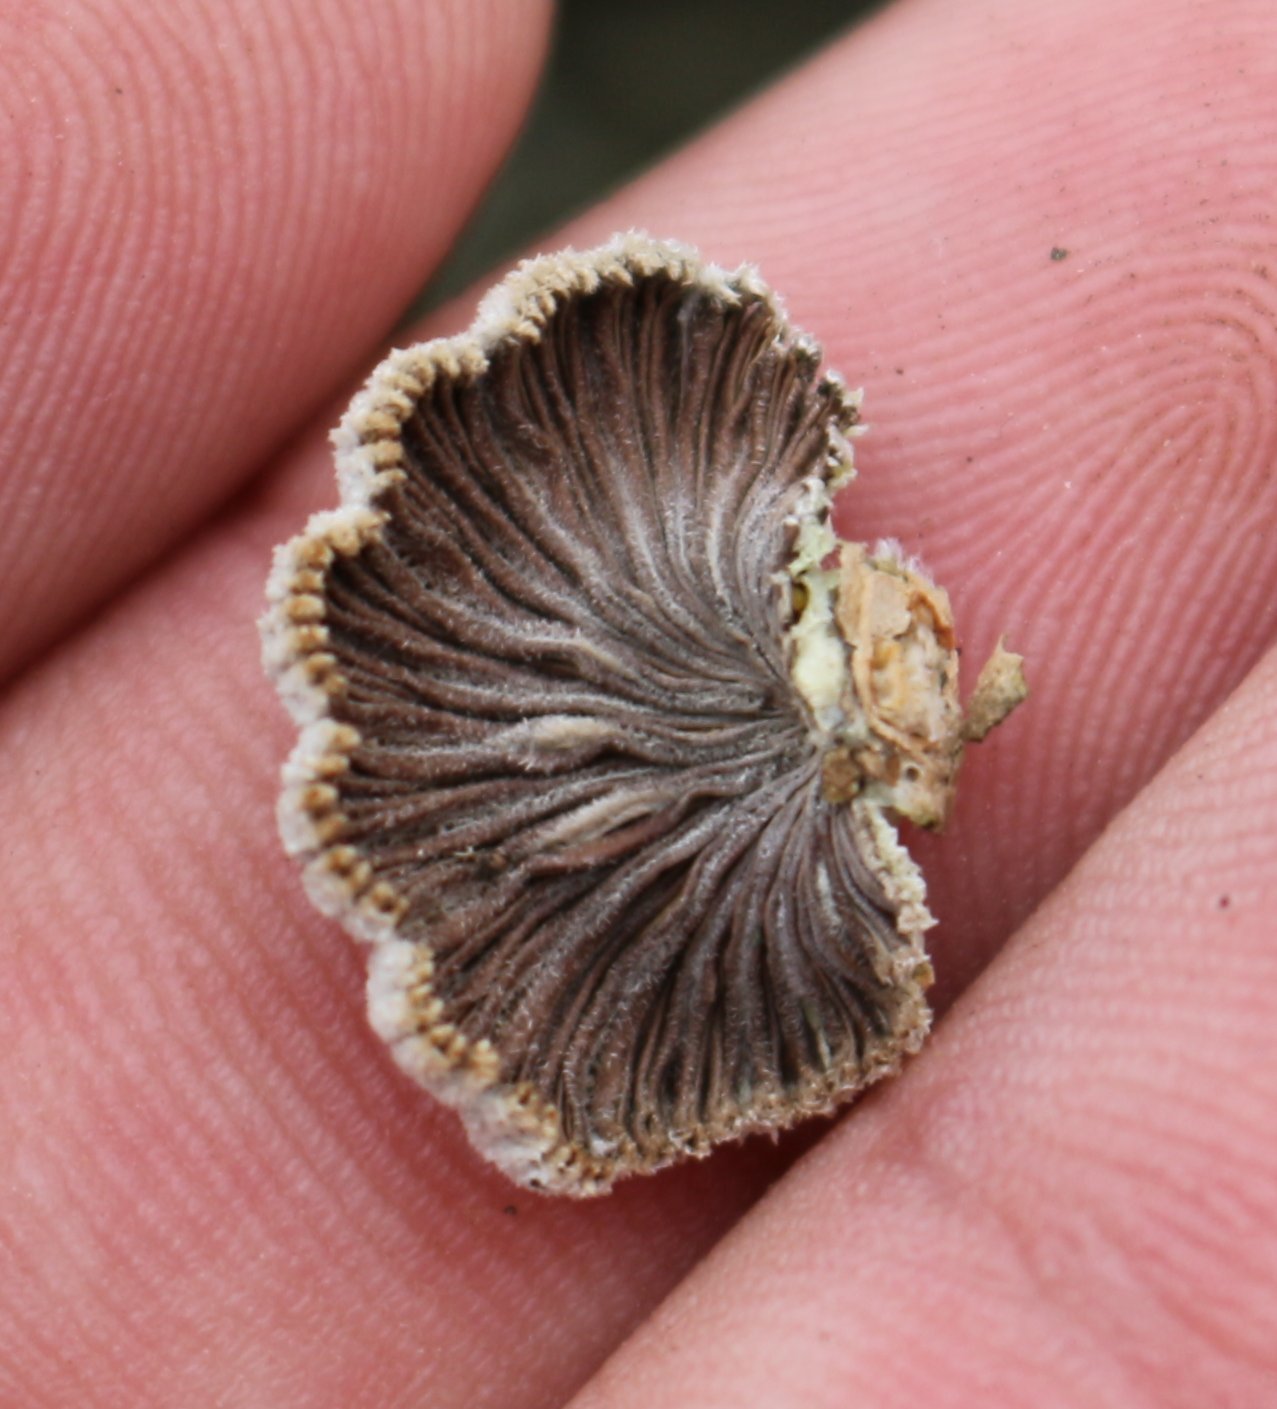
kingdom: Fungi
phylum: Basidiomycota
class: Agaricomycetes
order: Agaricales
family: Schizophyllaceae
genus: Schizophyllum
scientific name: Schizophyllum commune
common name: Common porecrust
